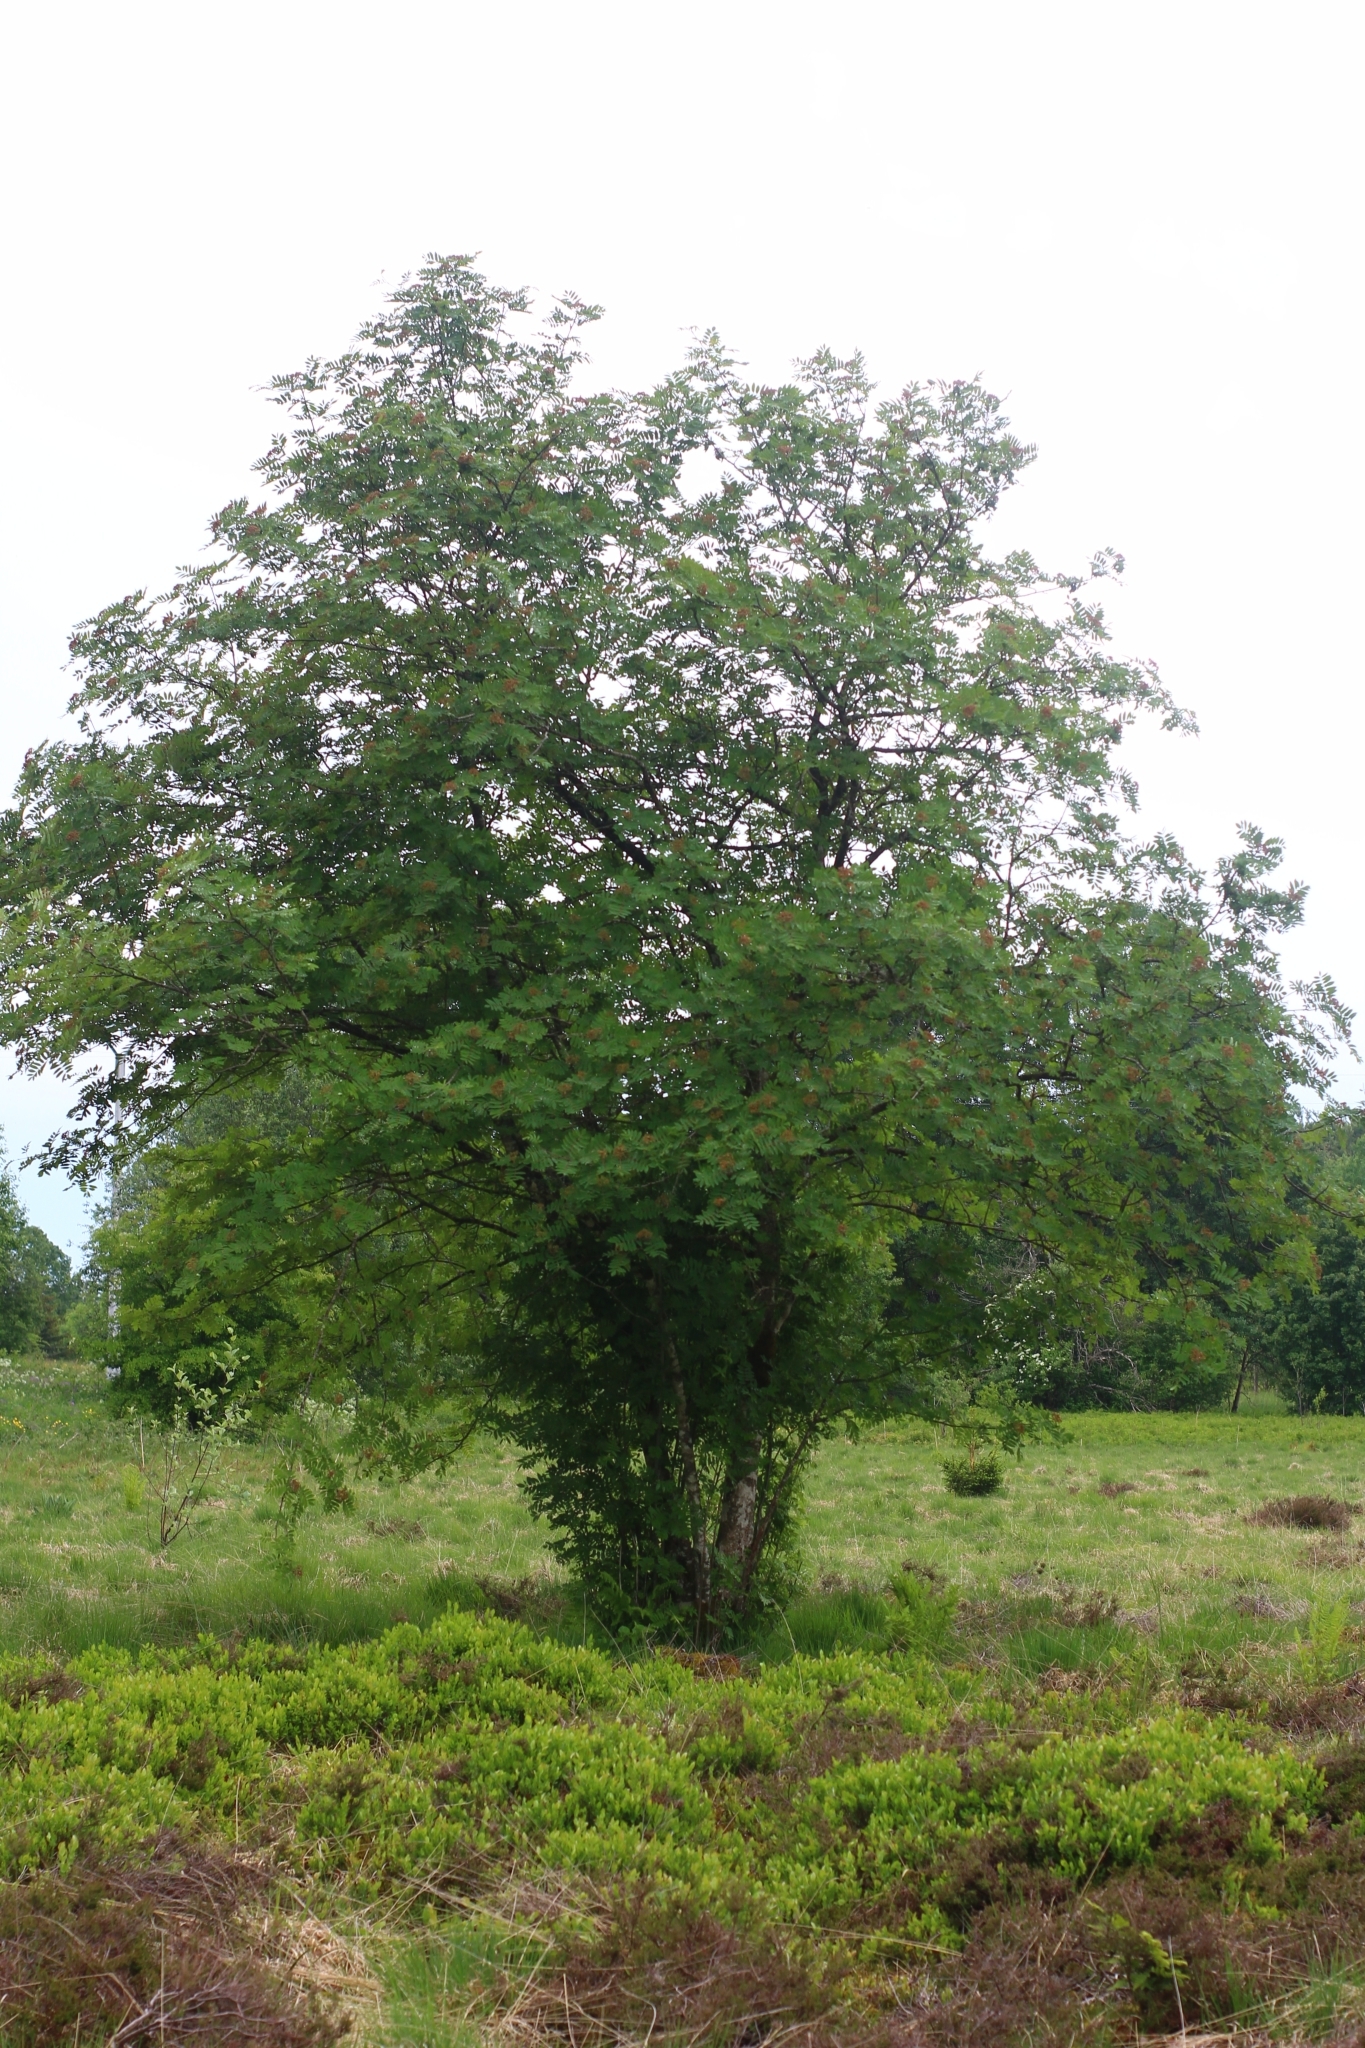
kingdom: Plantae
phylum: Tracheophyta
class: Magnoliopsida
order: Rosales
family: Rosaceae
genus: Sorbus
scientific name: Sorbus aucuparia
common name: Rowan
